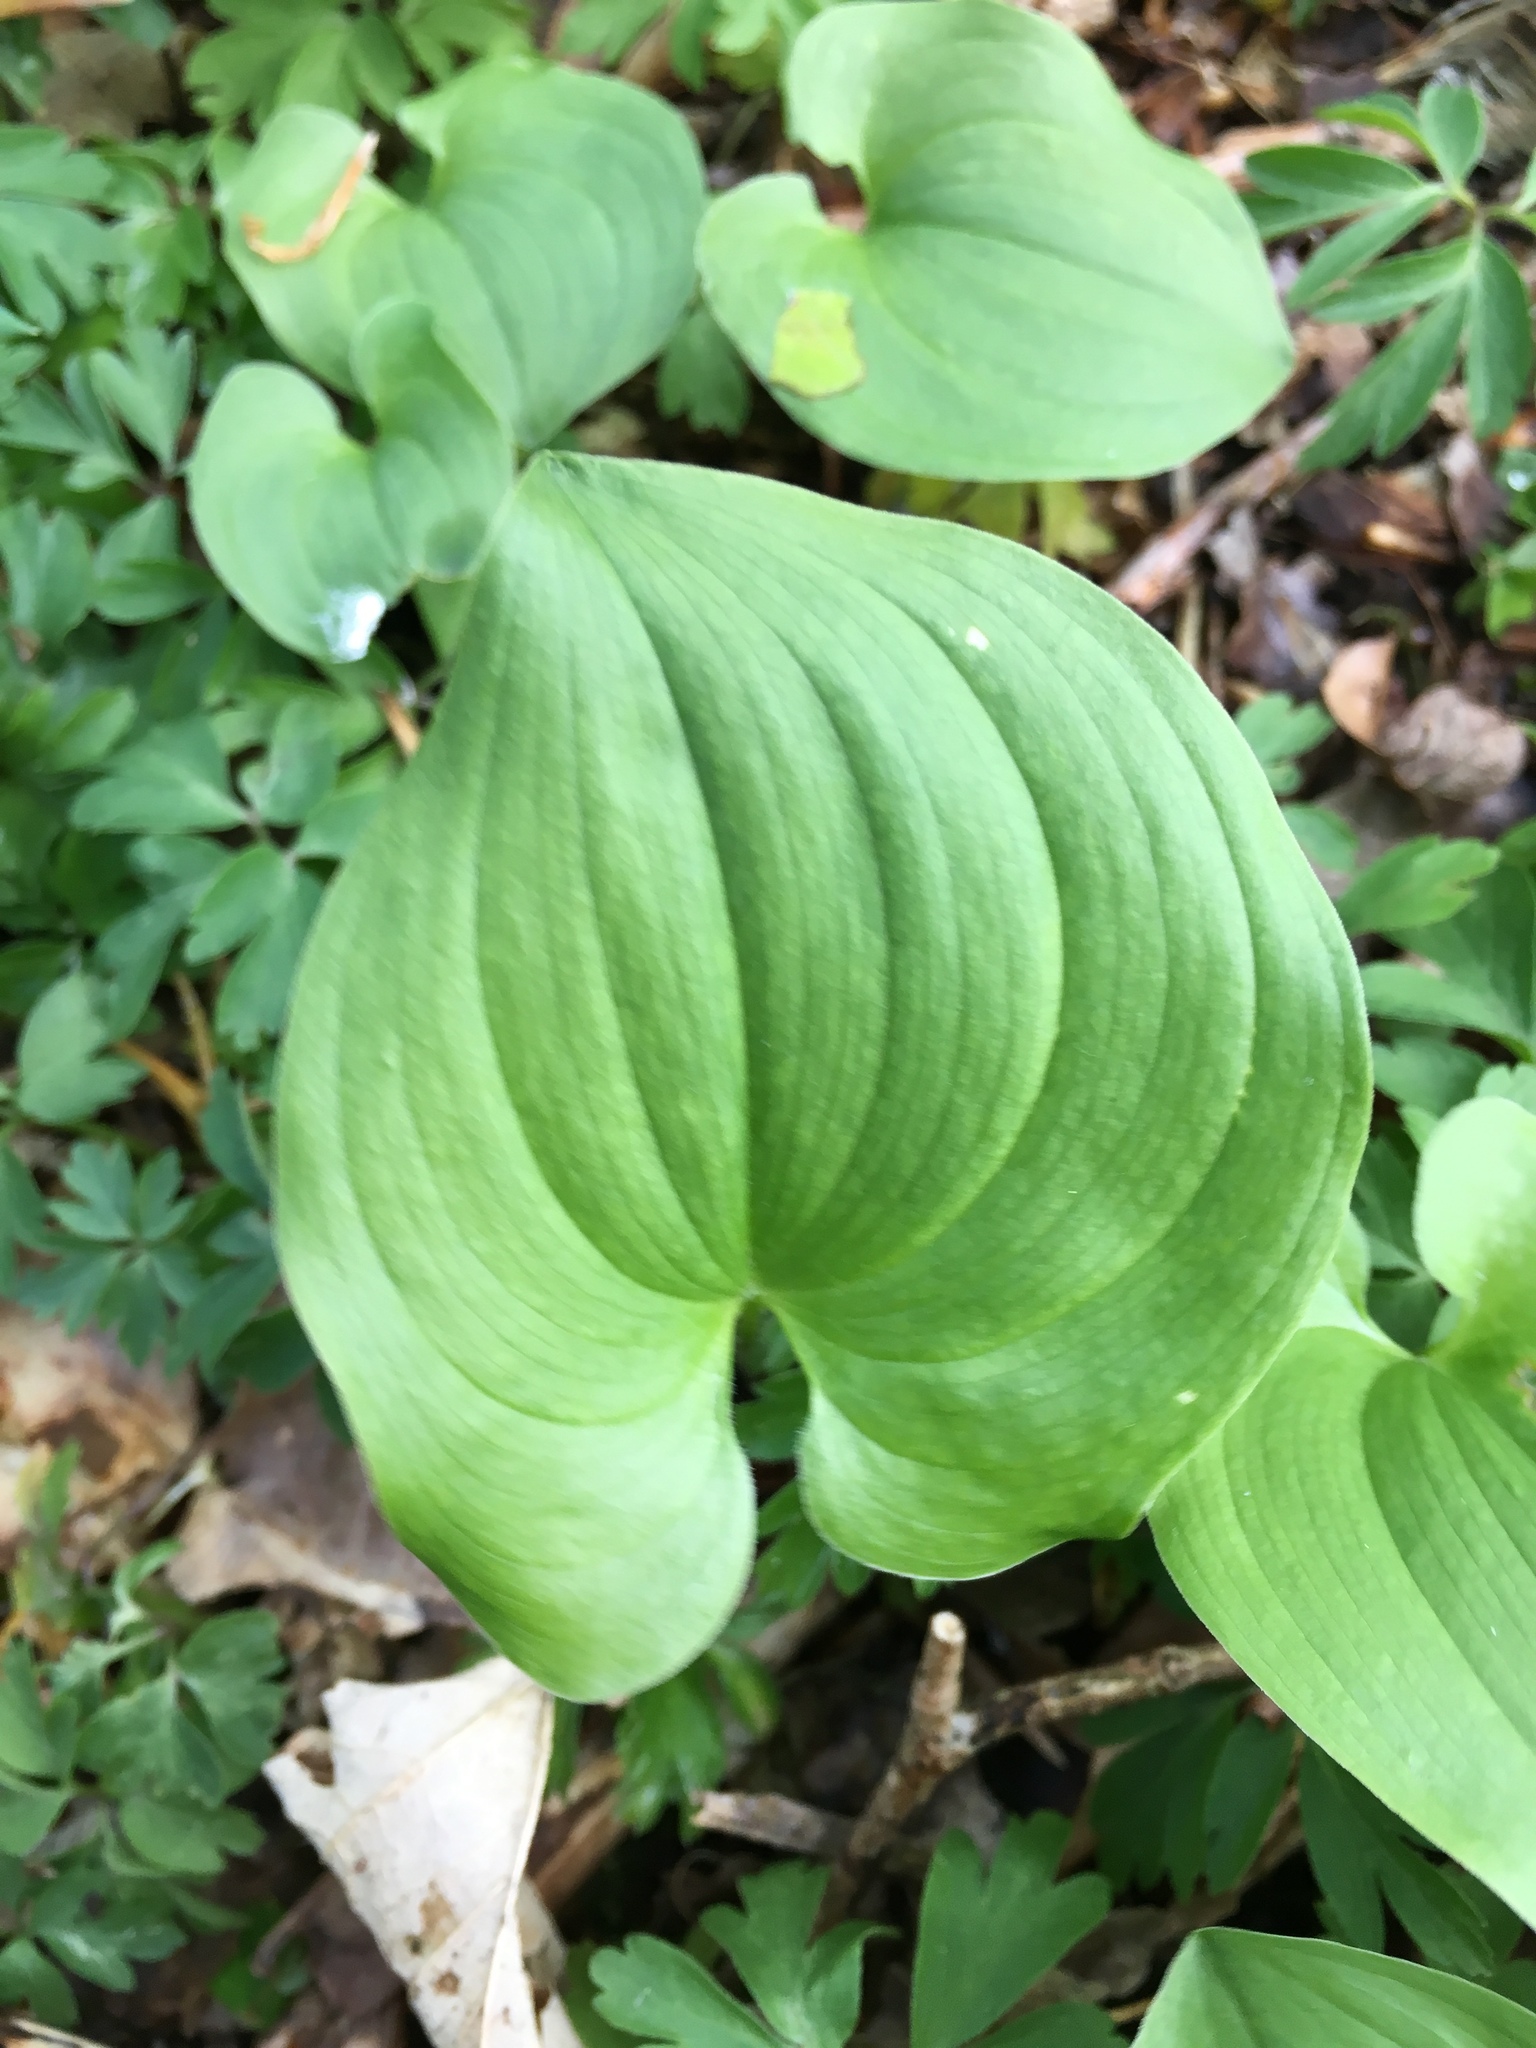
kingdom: Plantae
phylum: Tracheophyta
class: Liliopsida
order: Asparagales
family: Asparagaceae
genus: Maianthemum
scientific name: Maianthemum bifolium
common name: May lily
